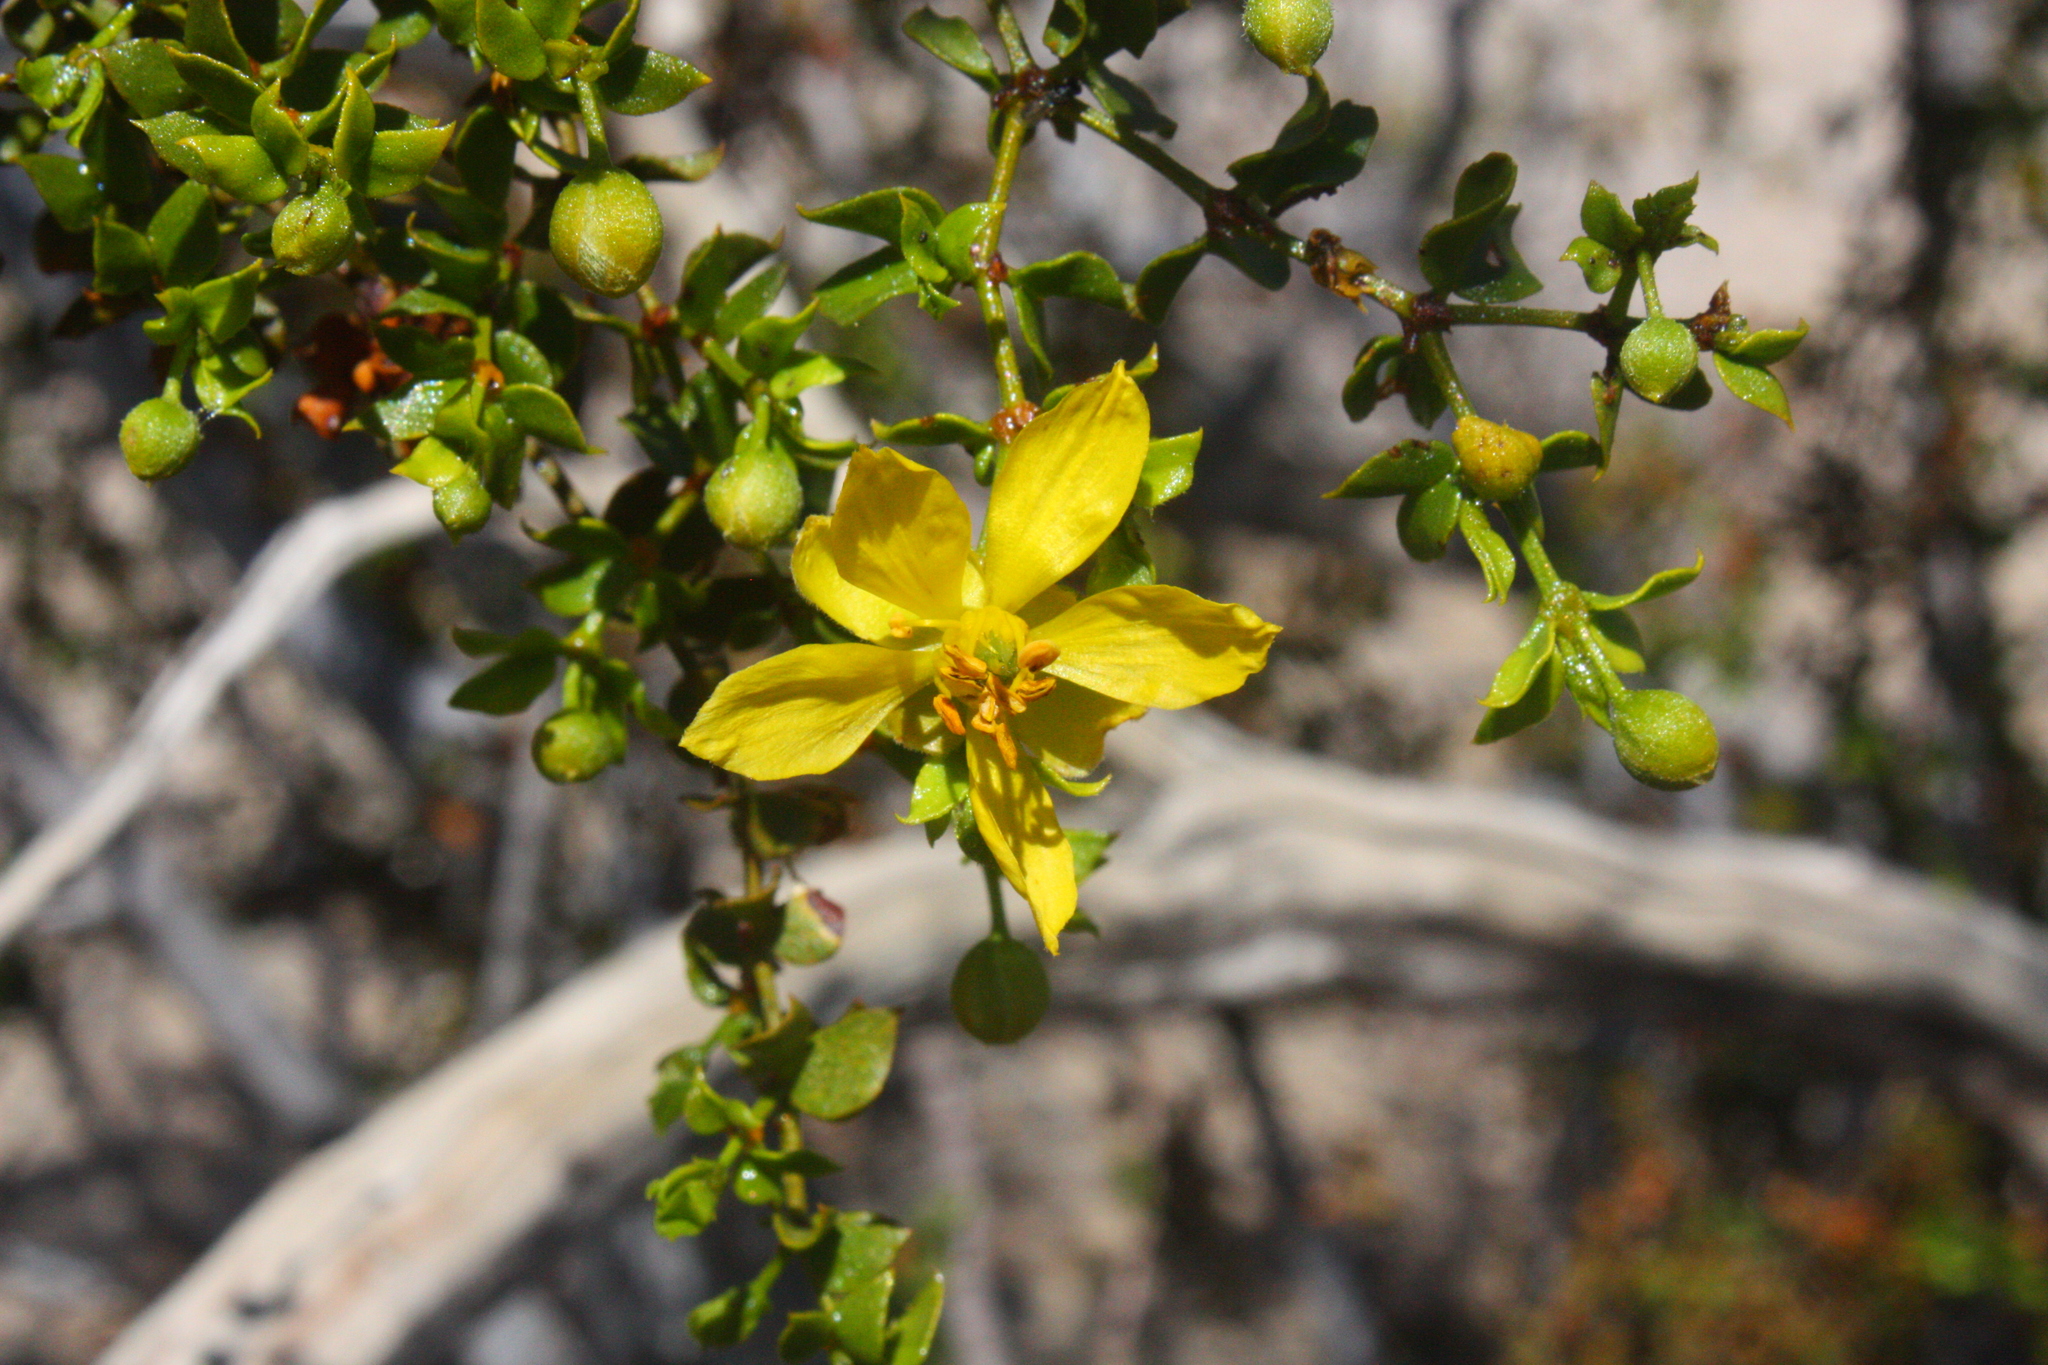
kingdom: Plantae
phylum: Tracheophyta
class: Magnoliopsida
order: Zygophyllales
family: Zygophyllaceae
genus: Larrea
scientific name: Larrea tridentata
